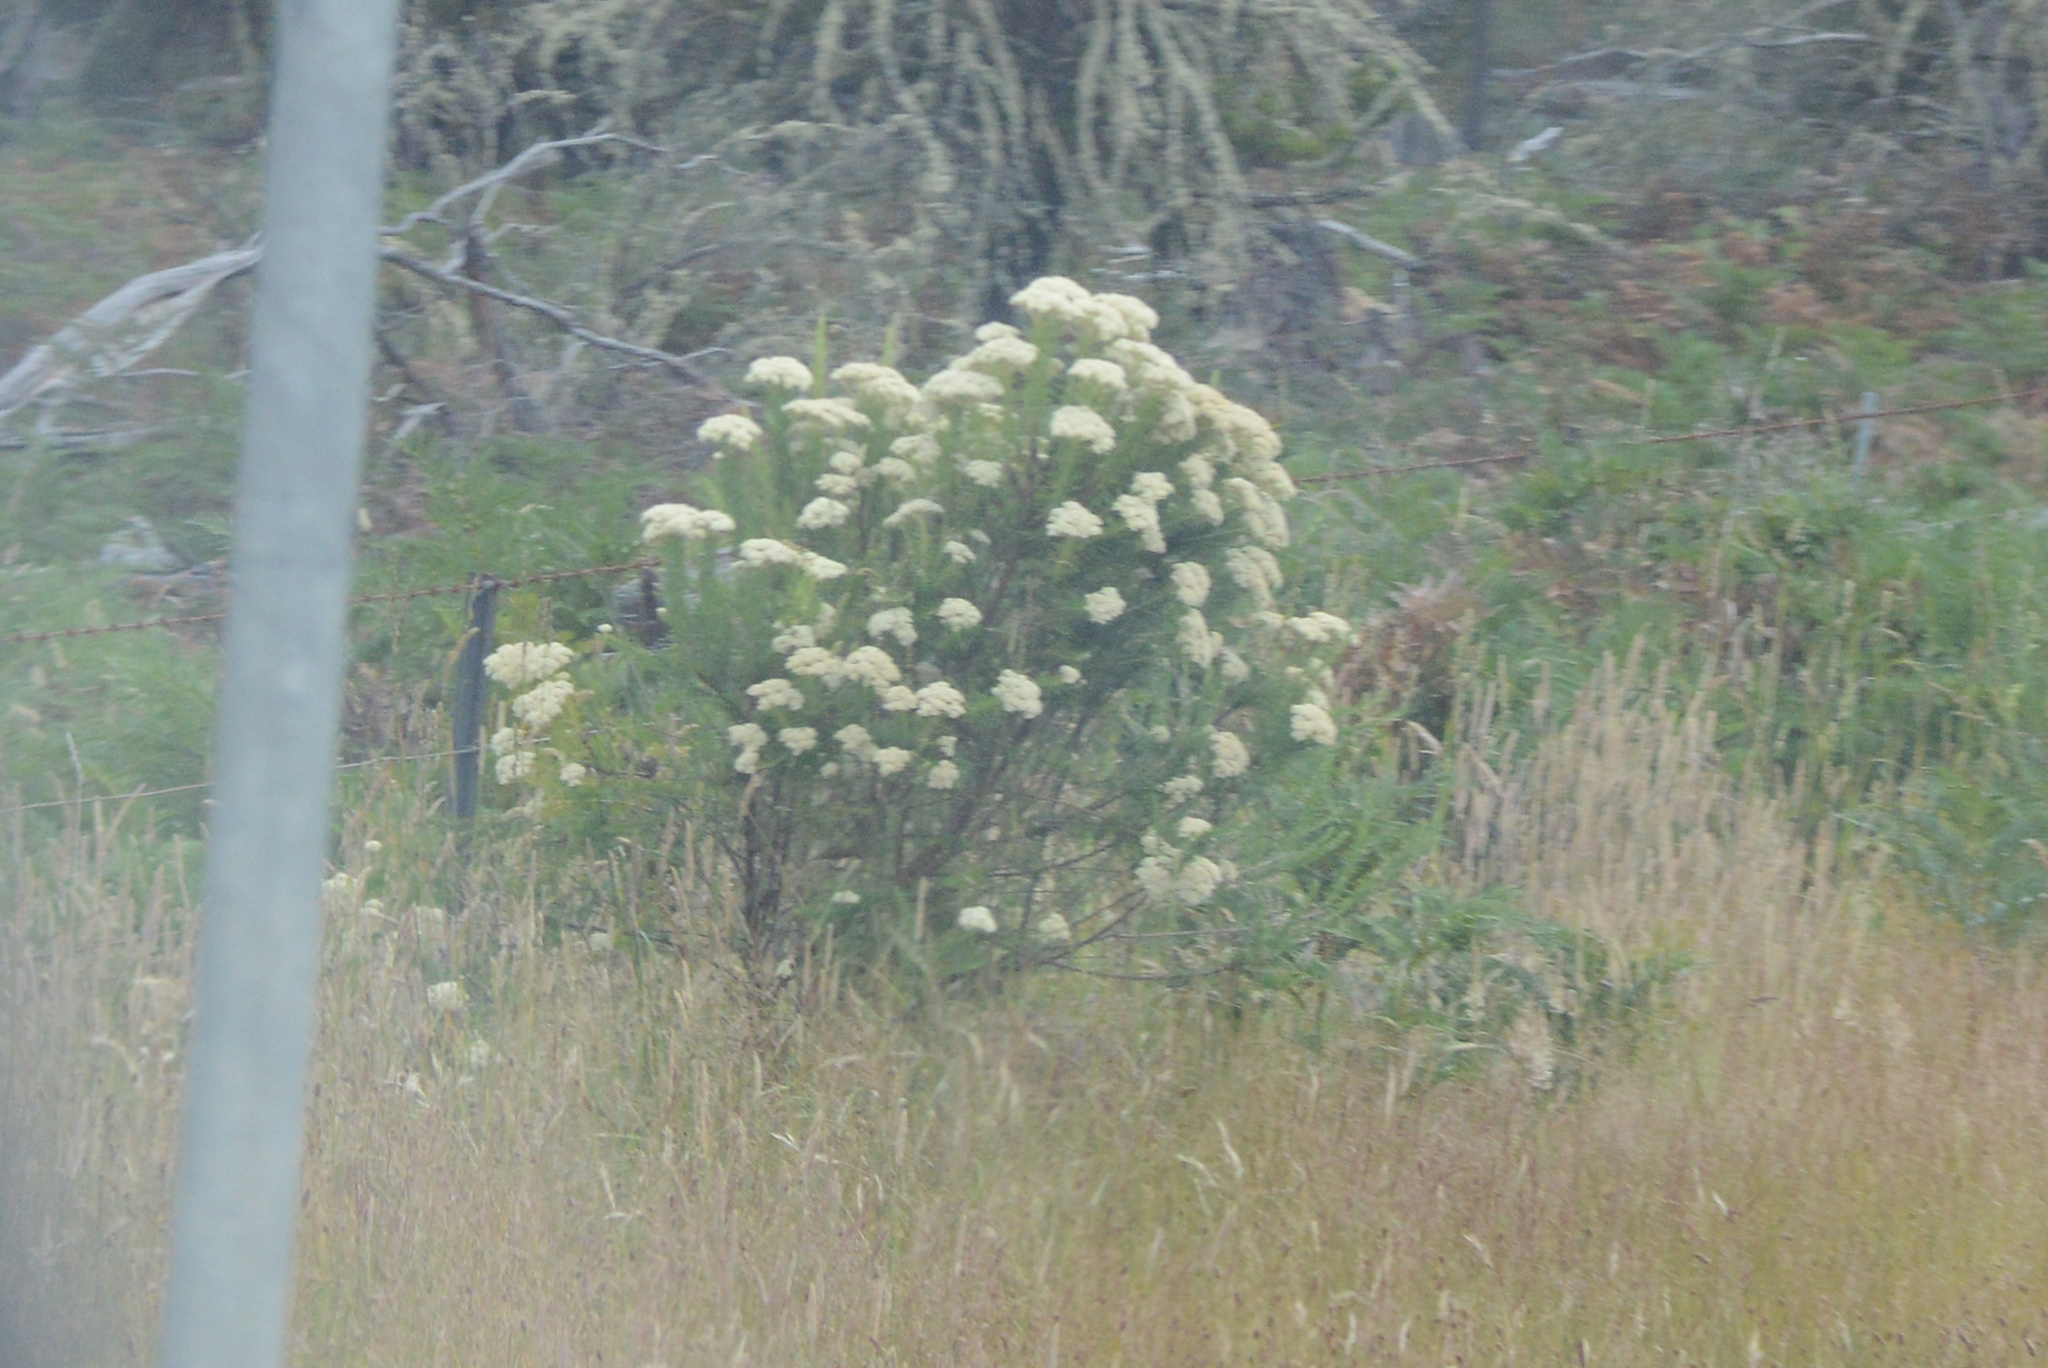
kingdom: Plantae
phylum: Tracheophyta
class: Magnoliopsida
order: Asterales
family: Asteraceae
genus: Cassinia
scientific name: Cassinia aculeata
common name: Australian tauhinu
